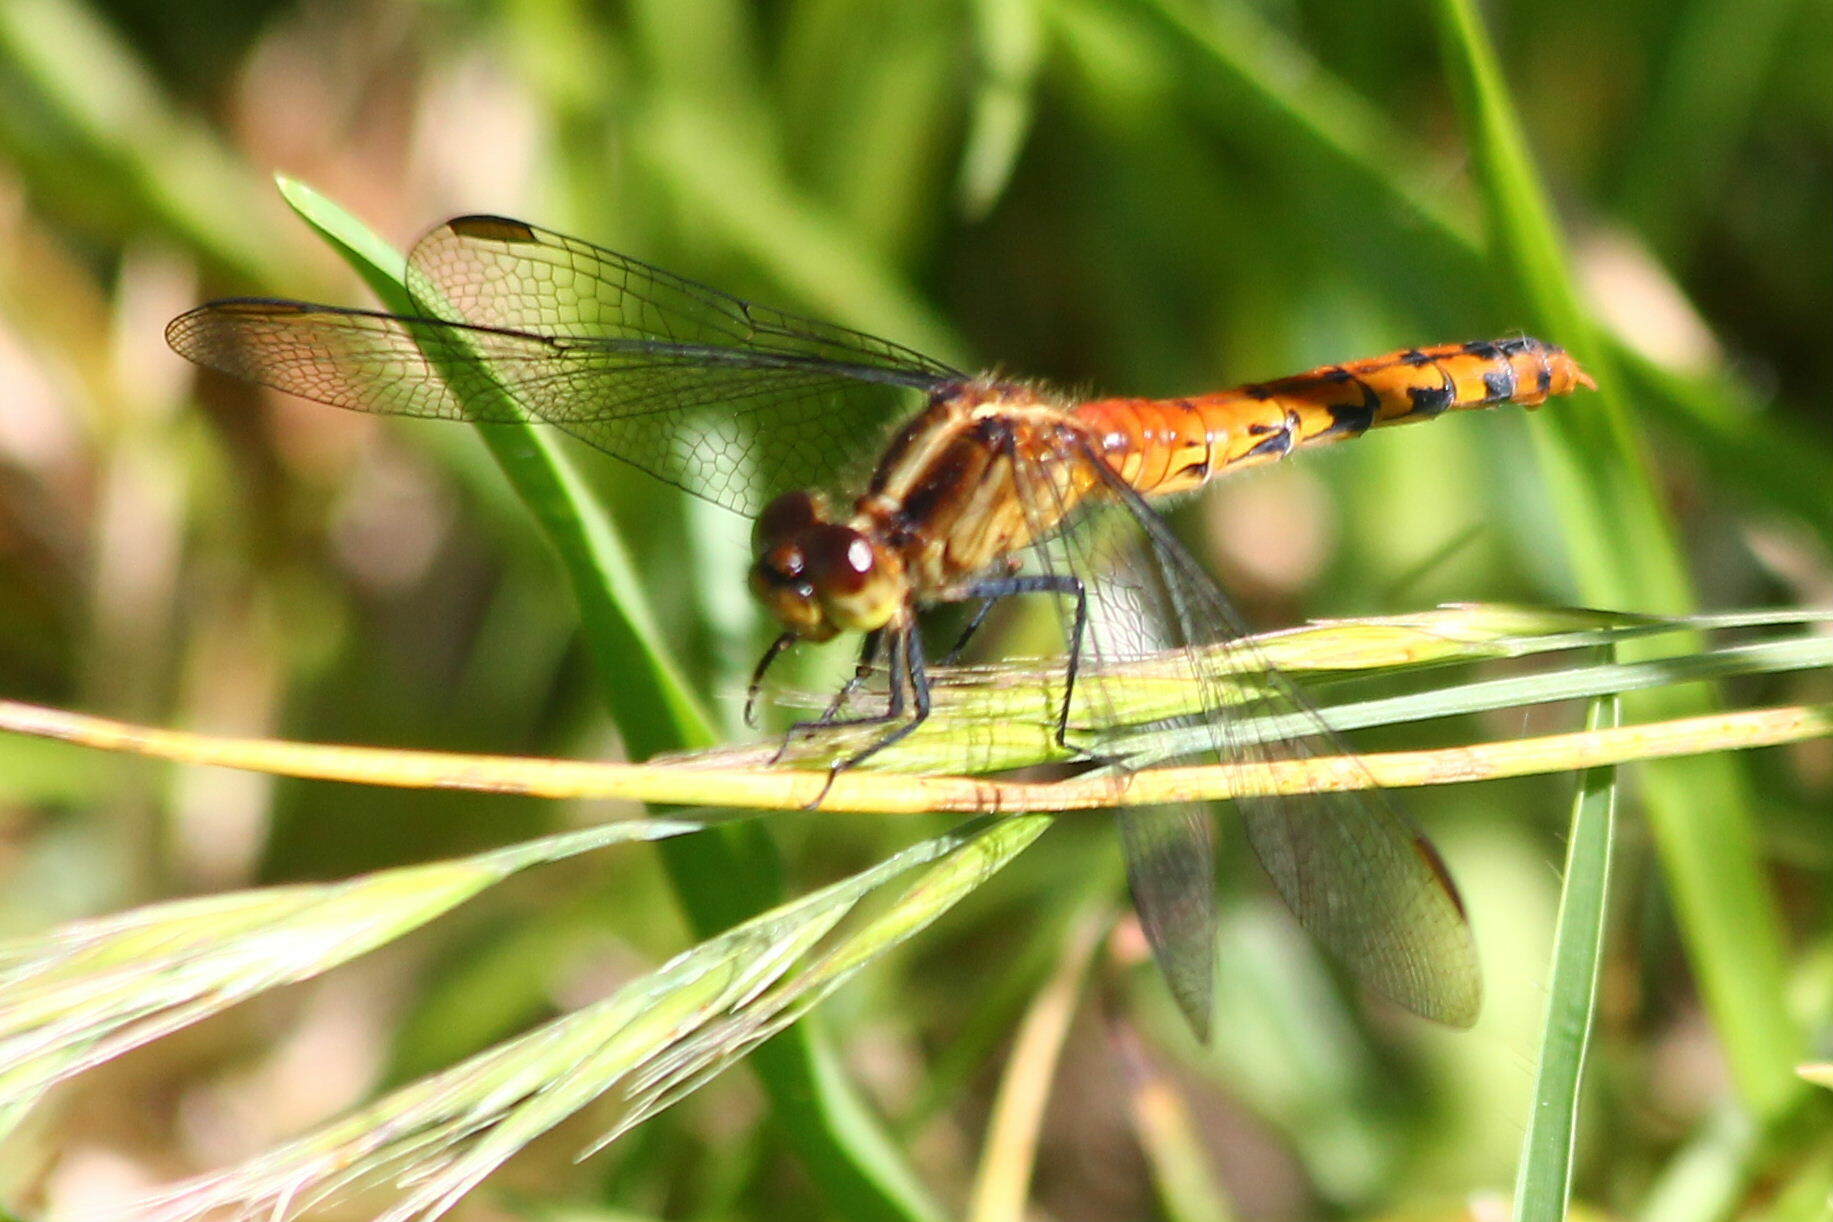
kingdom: Animalia
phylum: Arthropoda
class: Insecta
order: Odonata
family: Libellulidae
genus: Diplacodes
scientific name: Diplacodes melanopsis
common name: Black-faced percher
